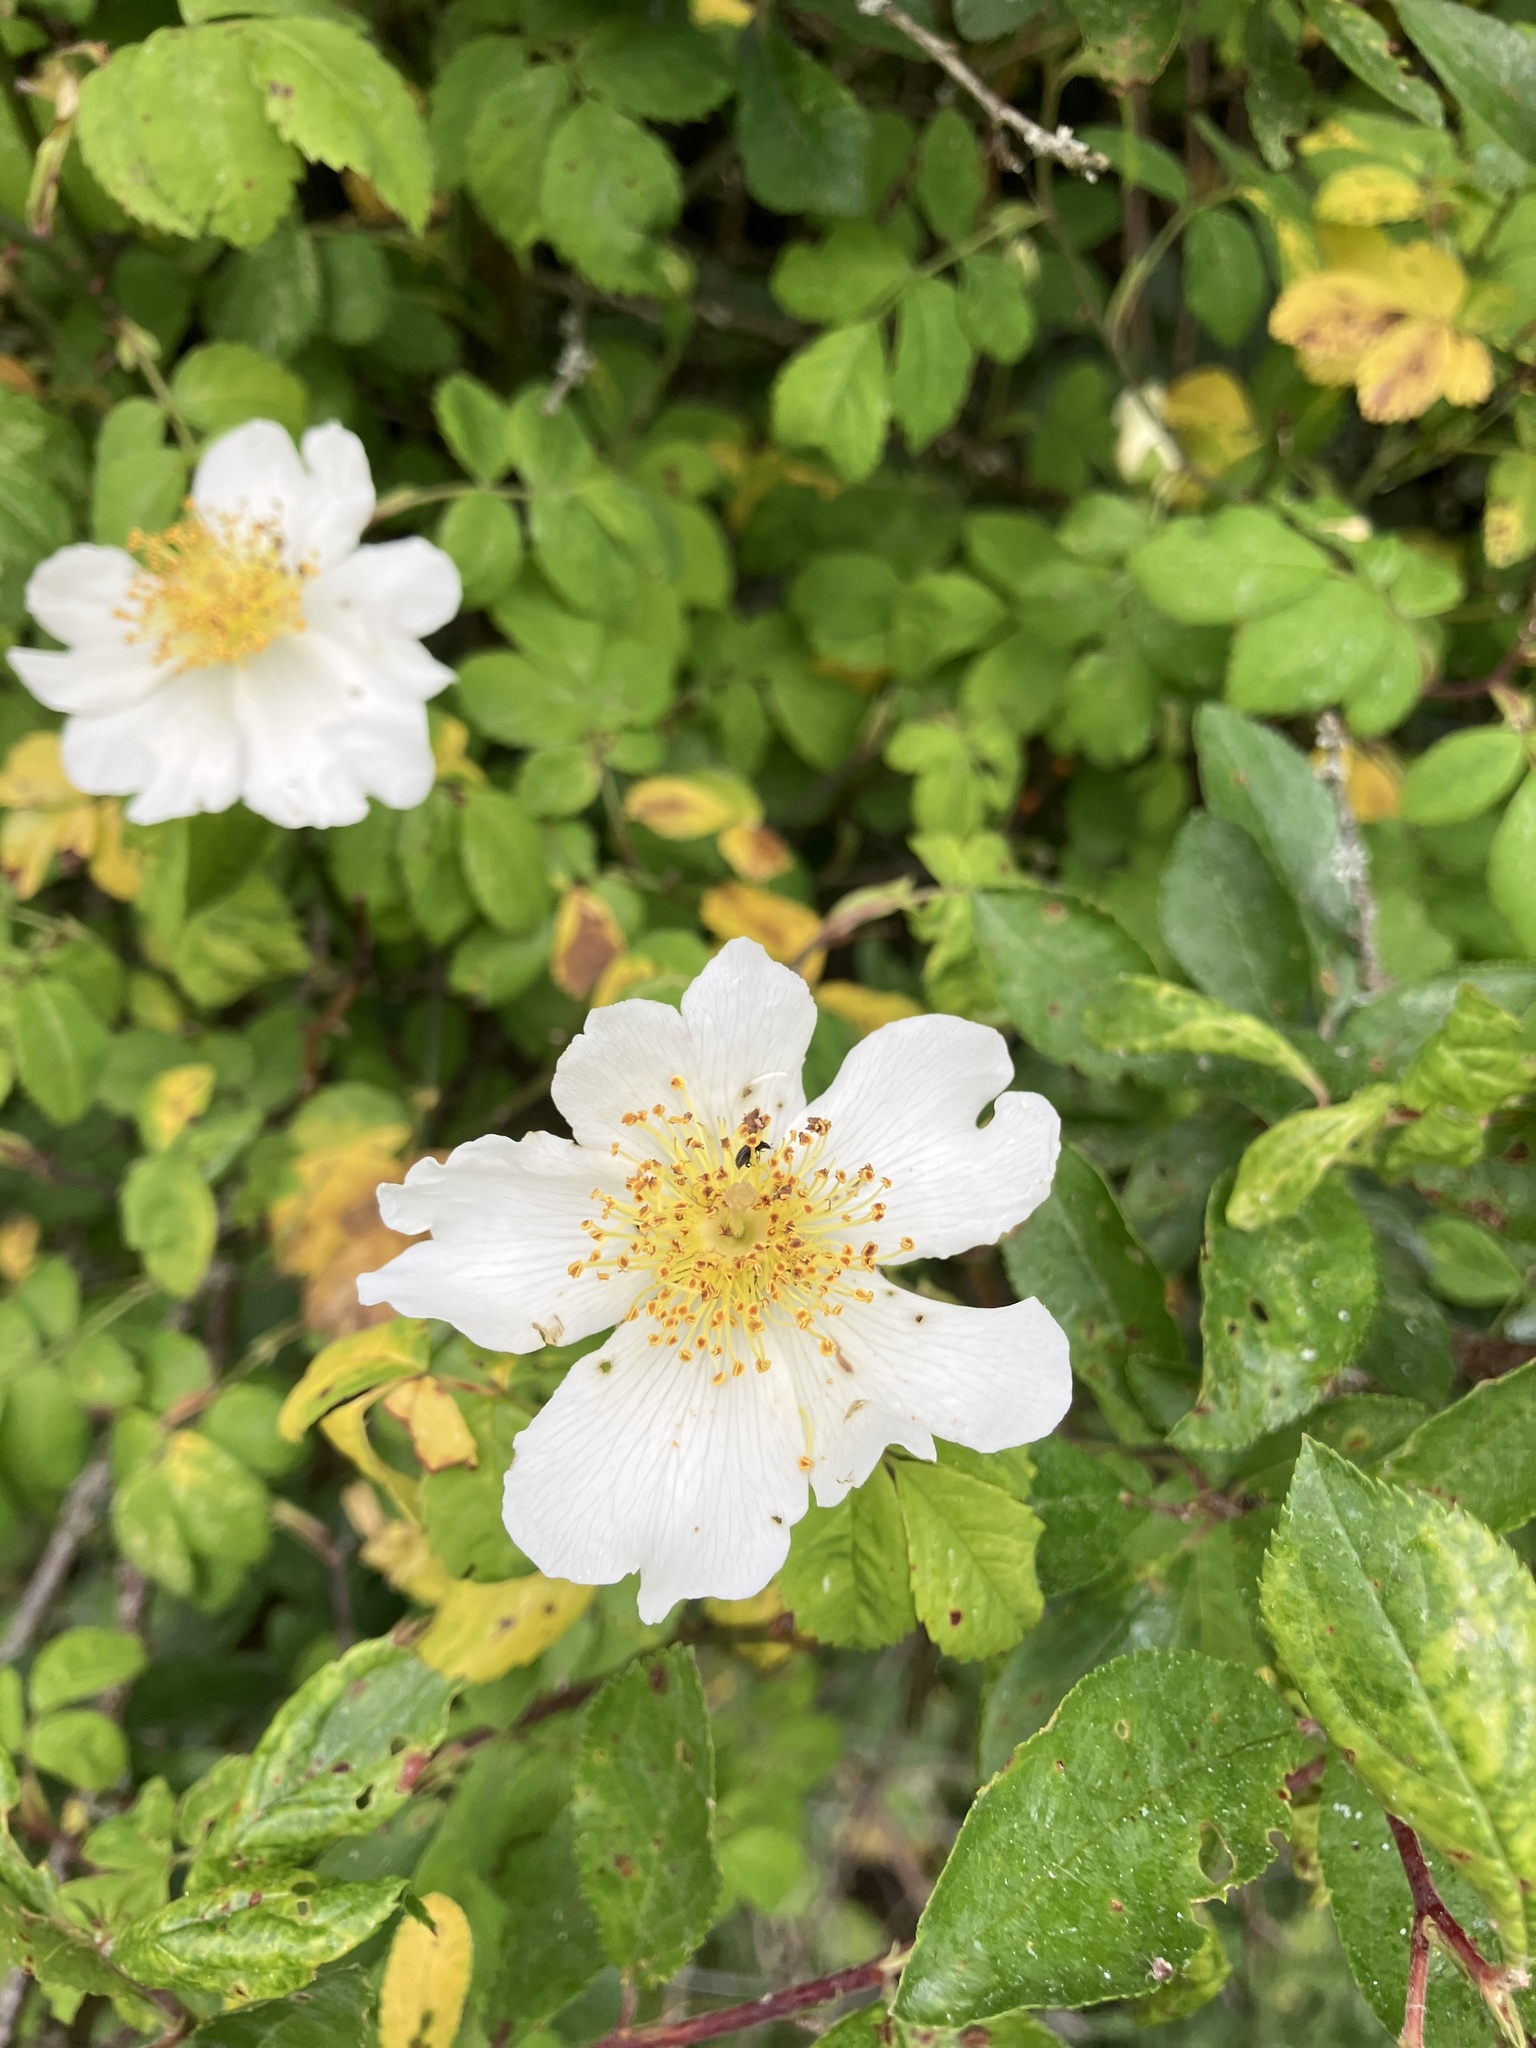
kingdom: Plantae
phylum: Tracheophyta
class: Magnoliopsida
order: Rosales
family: Rosaceae
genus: Rosa
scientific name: Rosa arvensis
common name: Field rose
